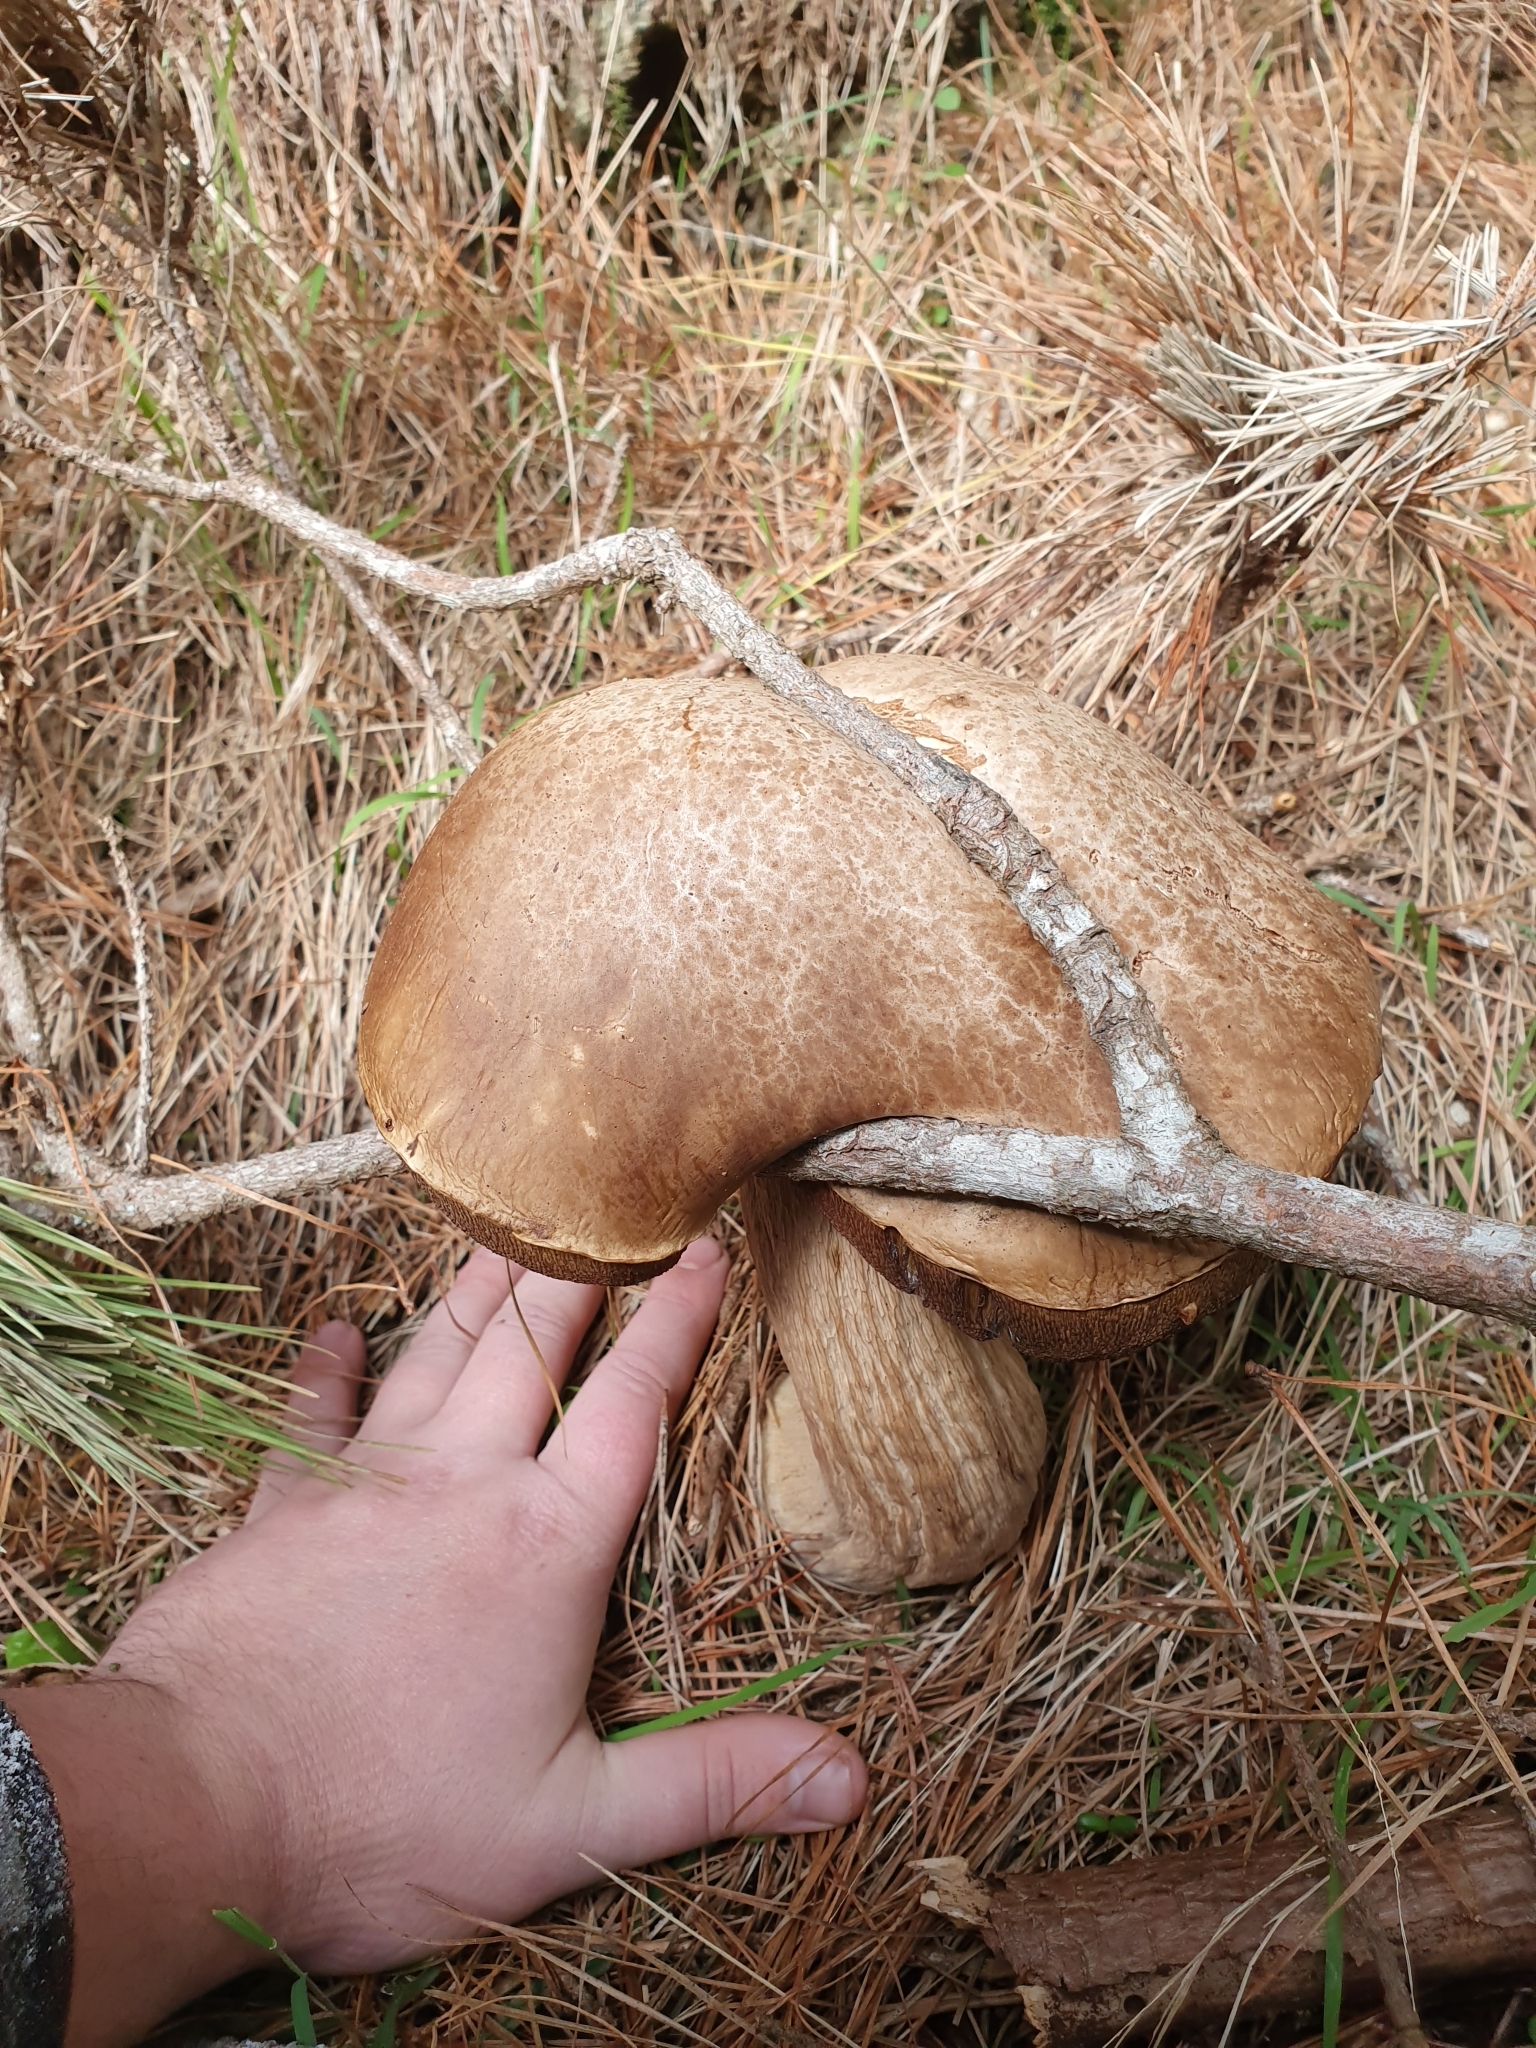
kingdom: Fungi
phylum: Basidiomycota
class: Agaricomycetes
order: Boletales
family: Boletaceae
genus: Boletus
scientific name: Boletus edulis
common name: Cep
